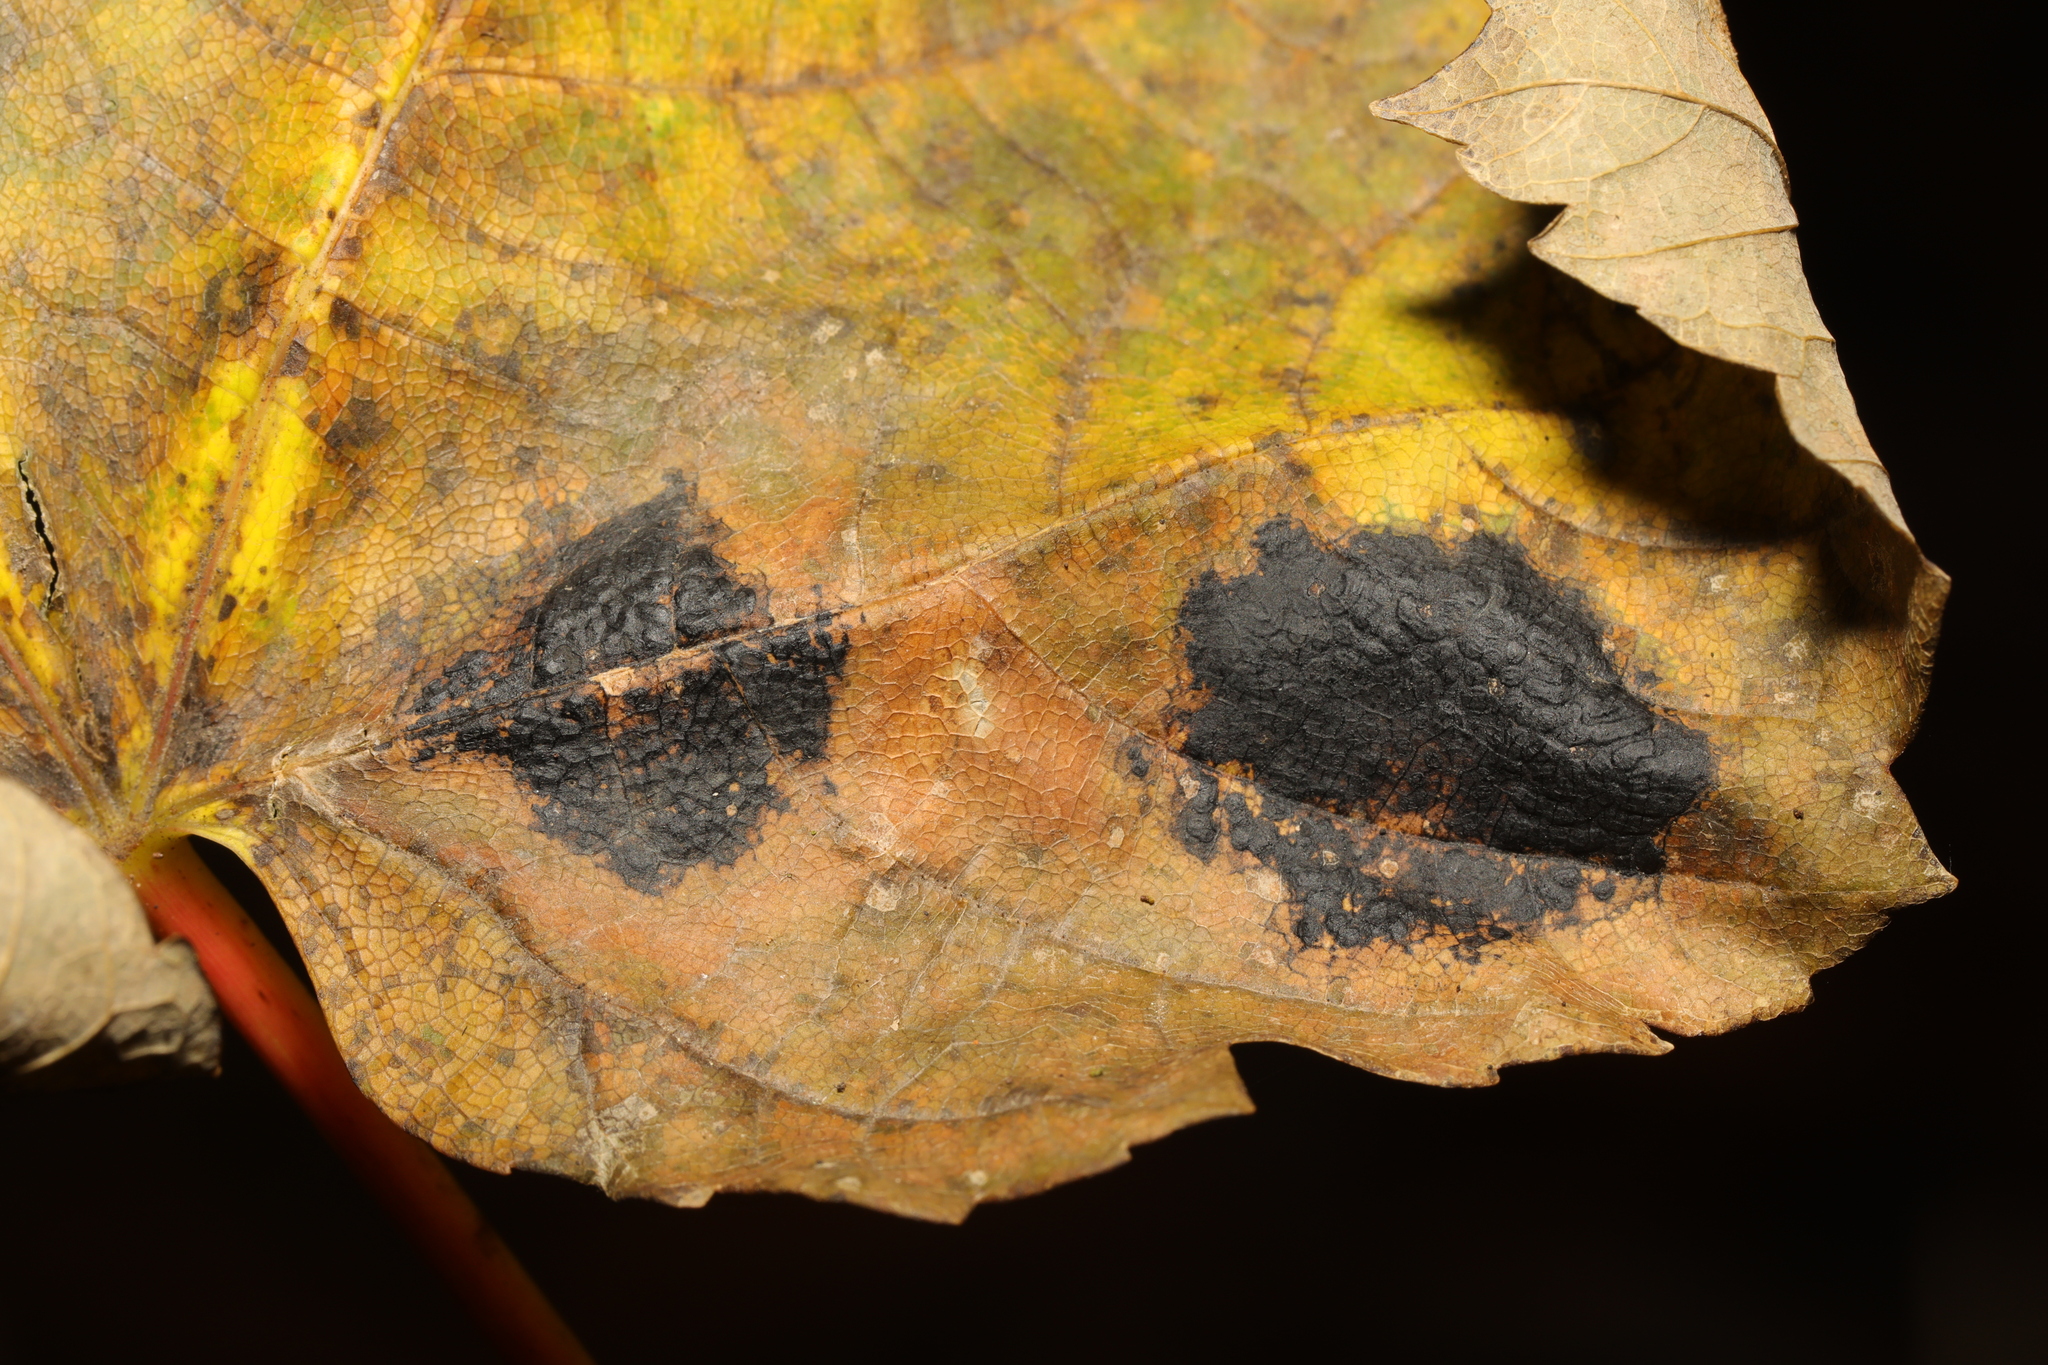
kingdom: Fungi
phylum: Ascomycota
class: Leotiomycetes
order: Rhytismatales
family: Rhytismataceae
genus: Rhytisma
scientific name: Rhytisma acerinum
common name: European tar spot
